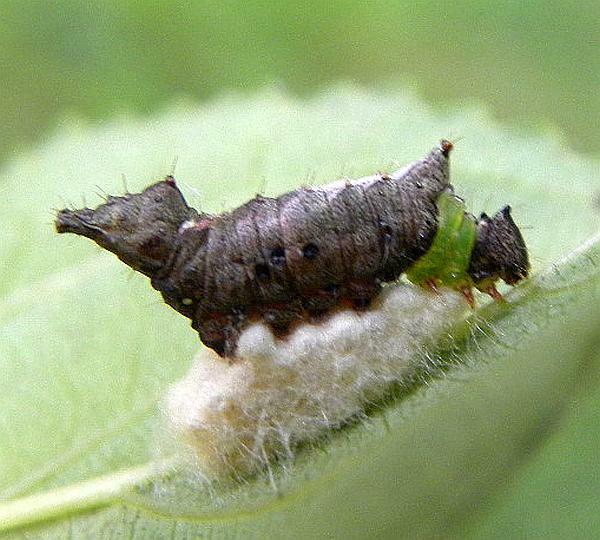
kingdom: Animalia
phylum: Arthropoda
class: Insecta
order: Lepidoptera
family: Notodontidae
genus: Schizura
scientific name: Schizura
